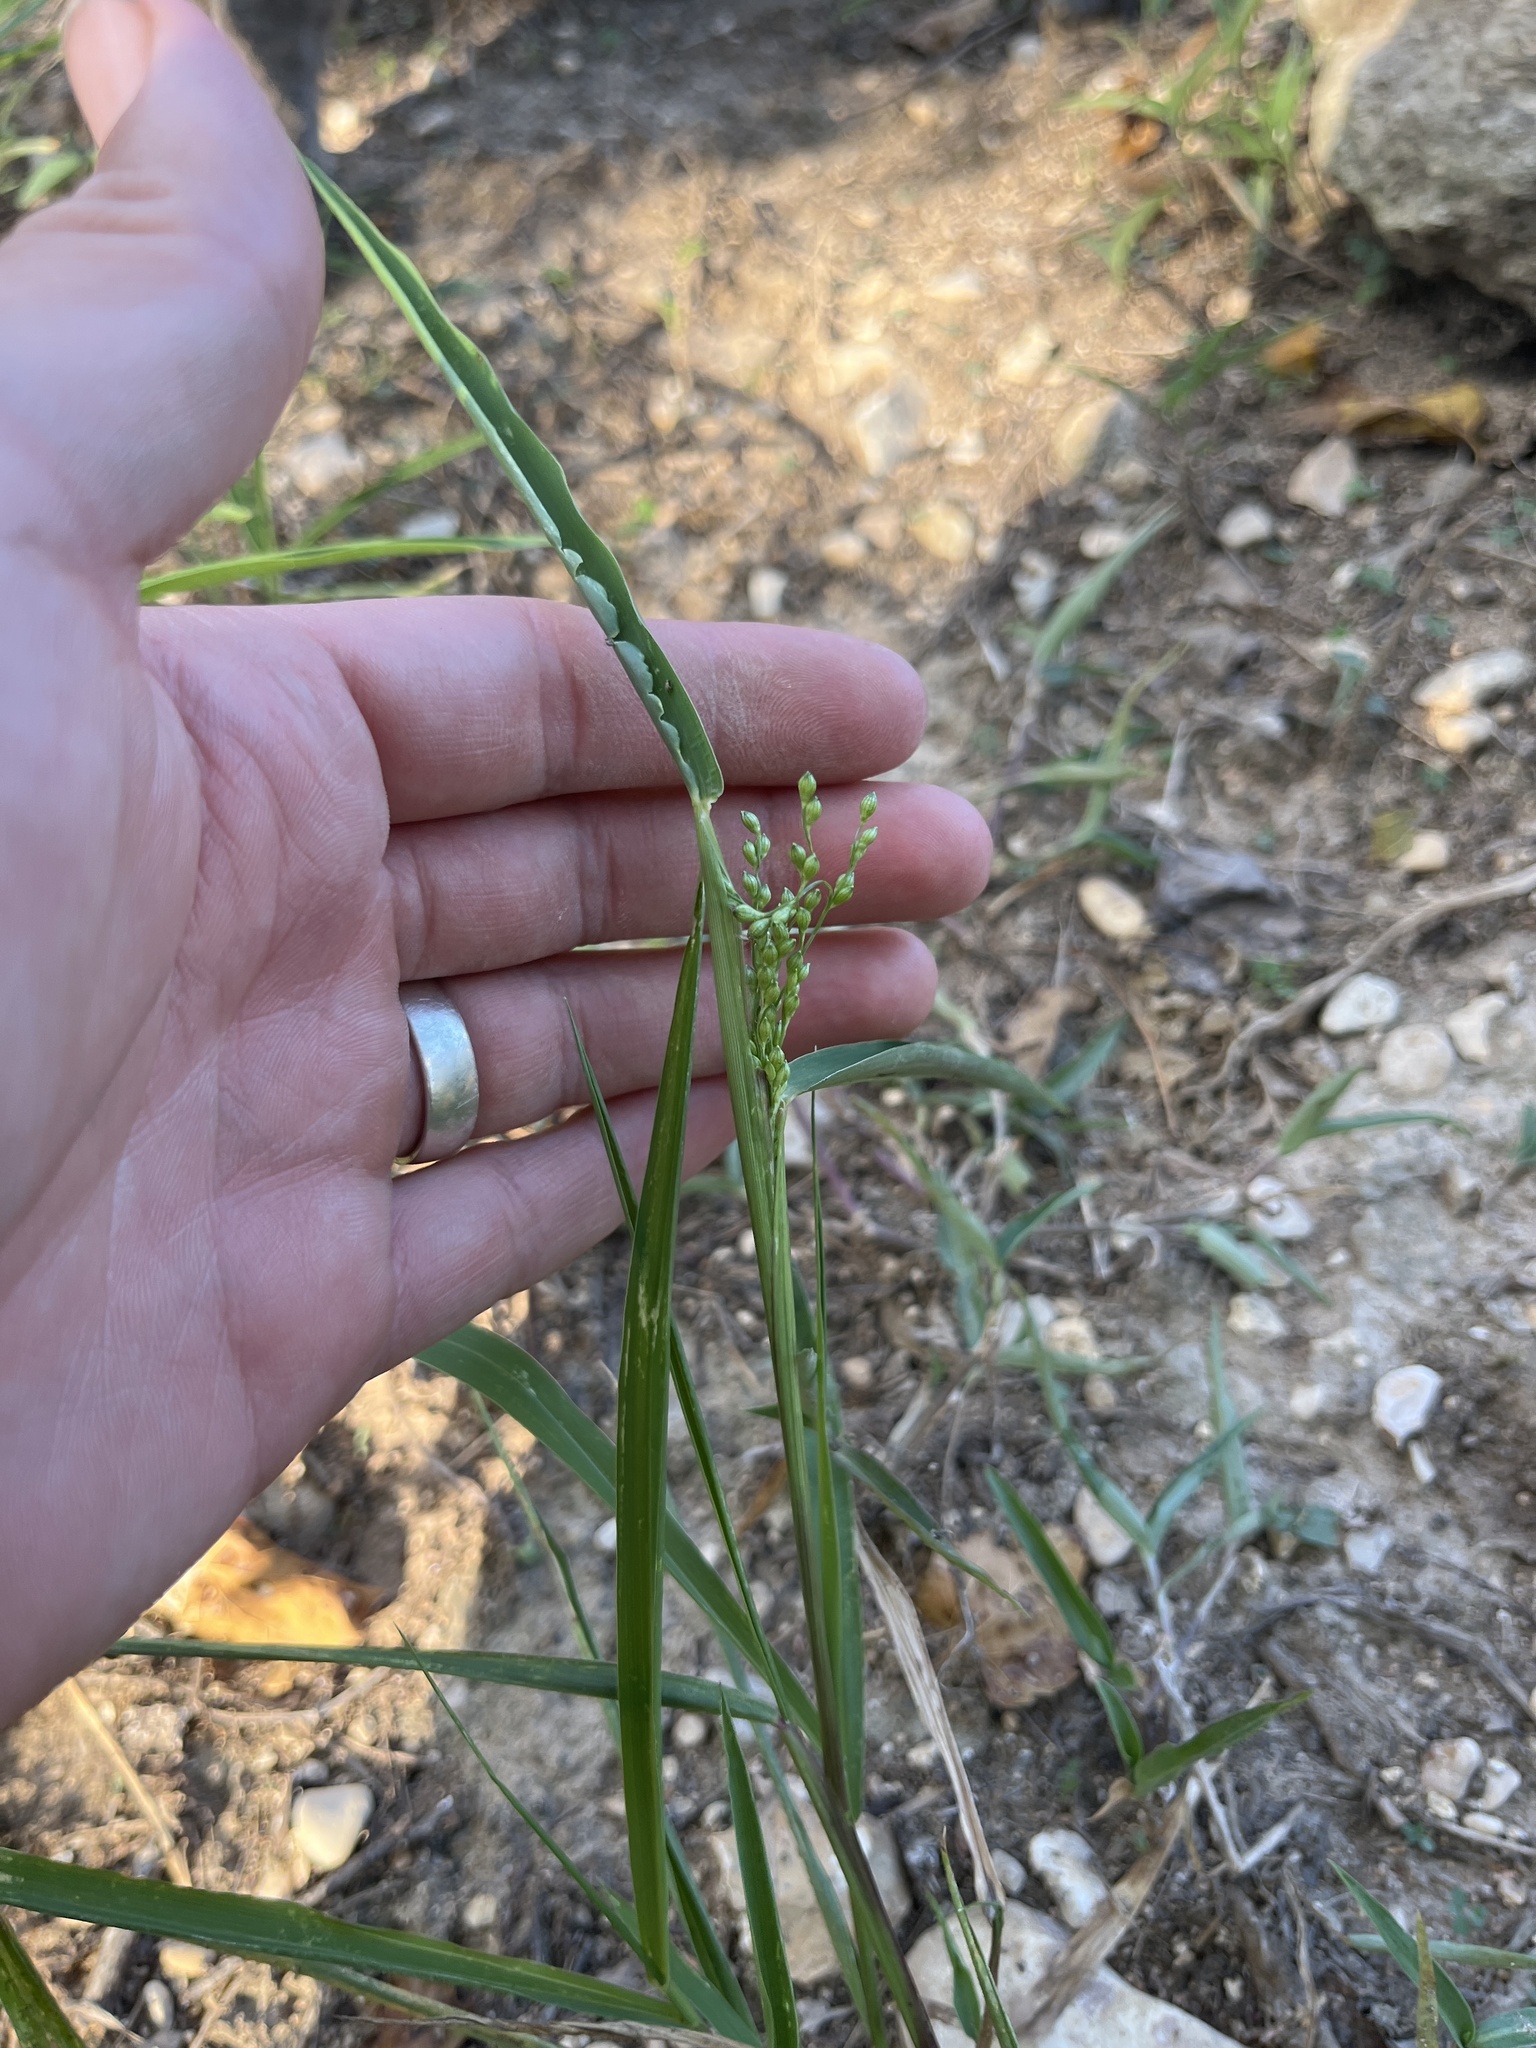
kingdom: Plantae
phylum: Tracheophyta
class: Liliopsida
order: Poales
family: Poaceae
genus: Urochloa
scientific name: Urochloa fusca
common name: Browntop signal grass
